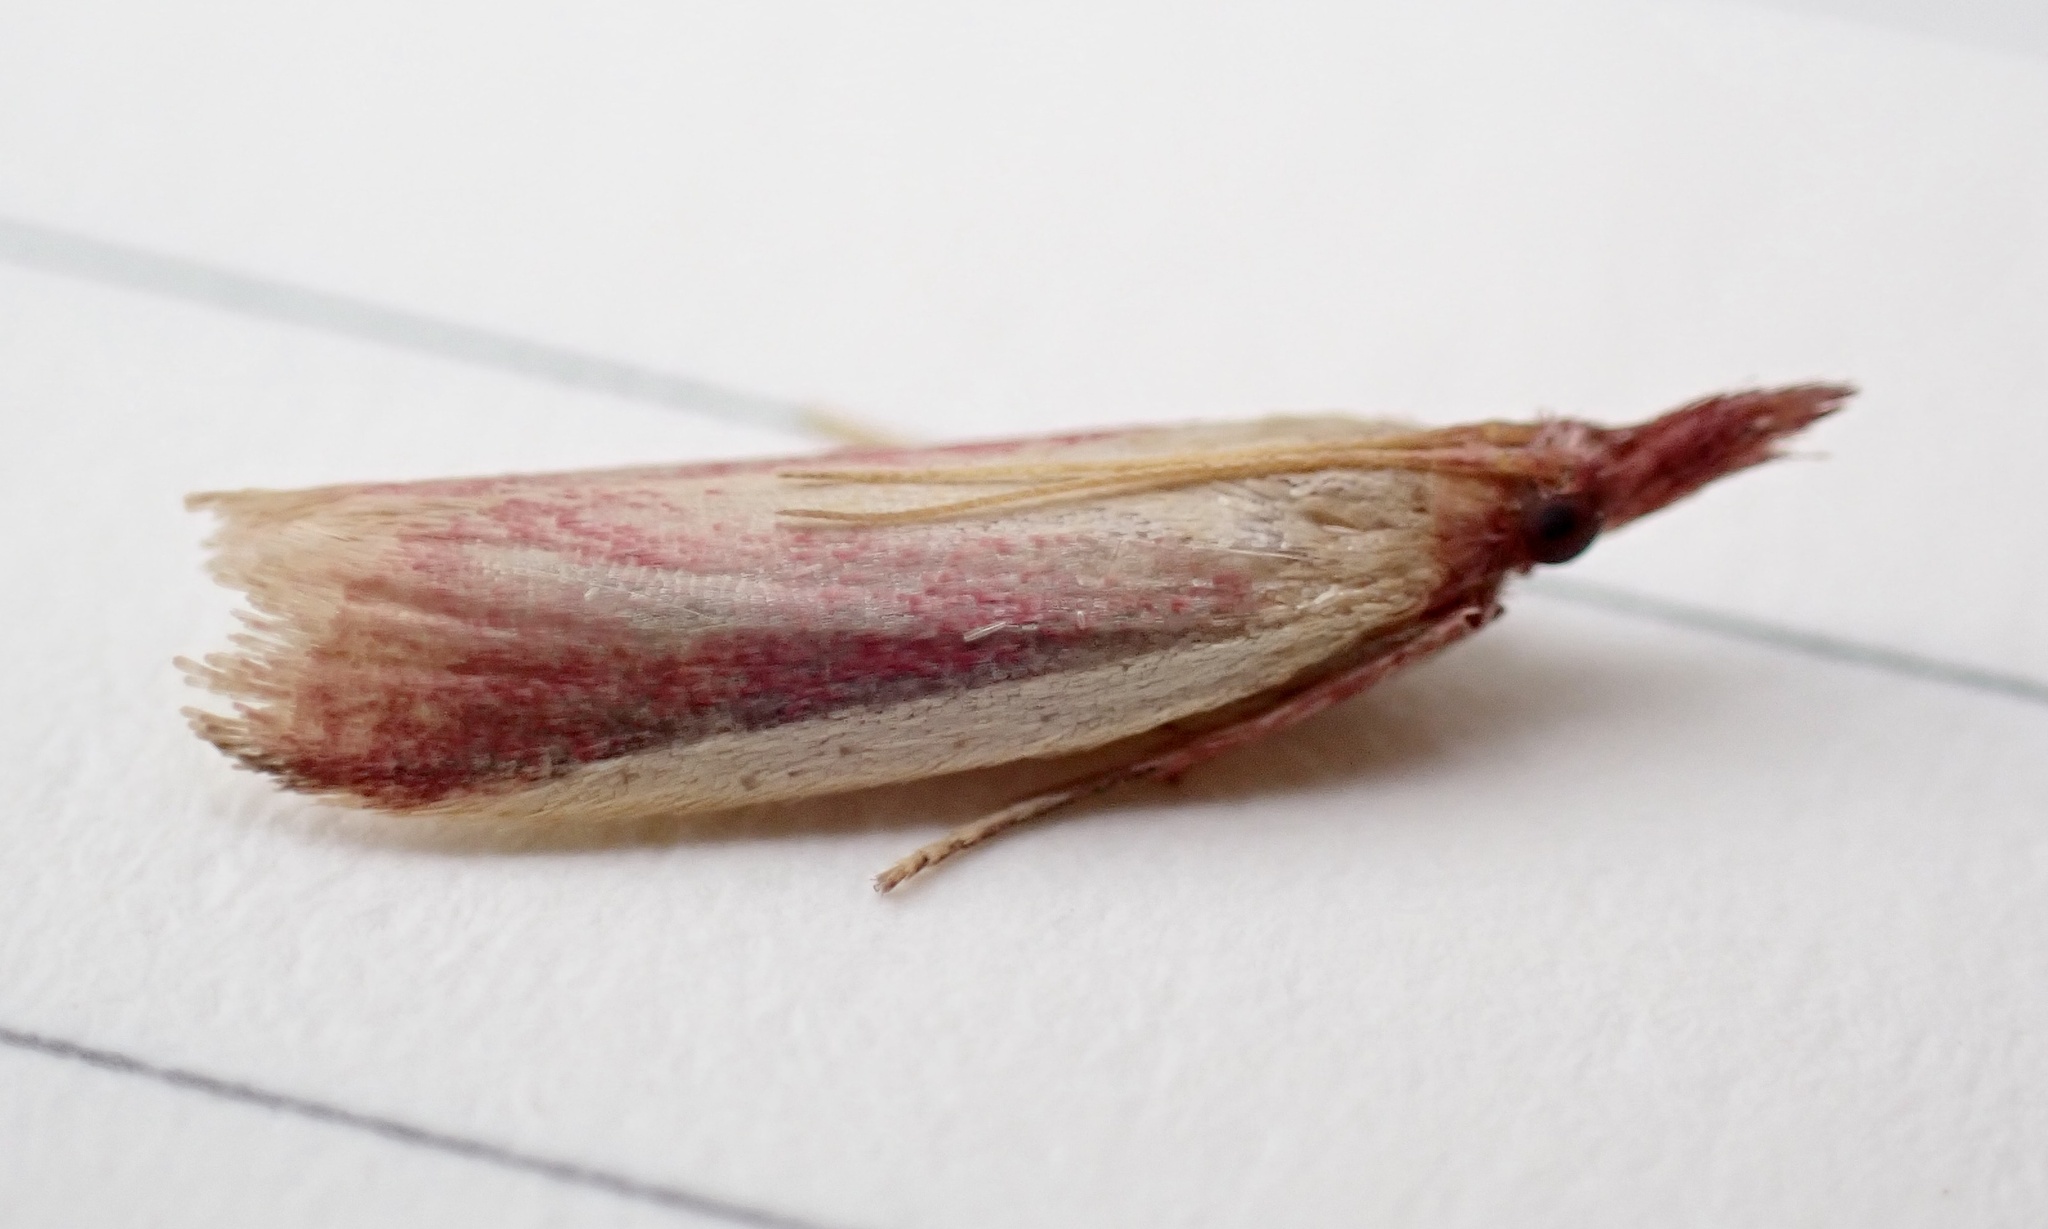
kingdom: Animalia
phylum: Arthropoda
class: Insecta
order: Lepidoptera
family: Pyralidae
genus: Peoria
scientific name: Peoria approximella
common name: Carmine snout
